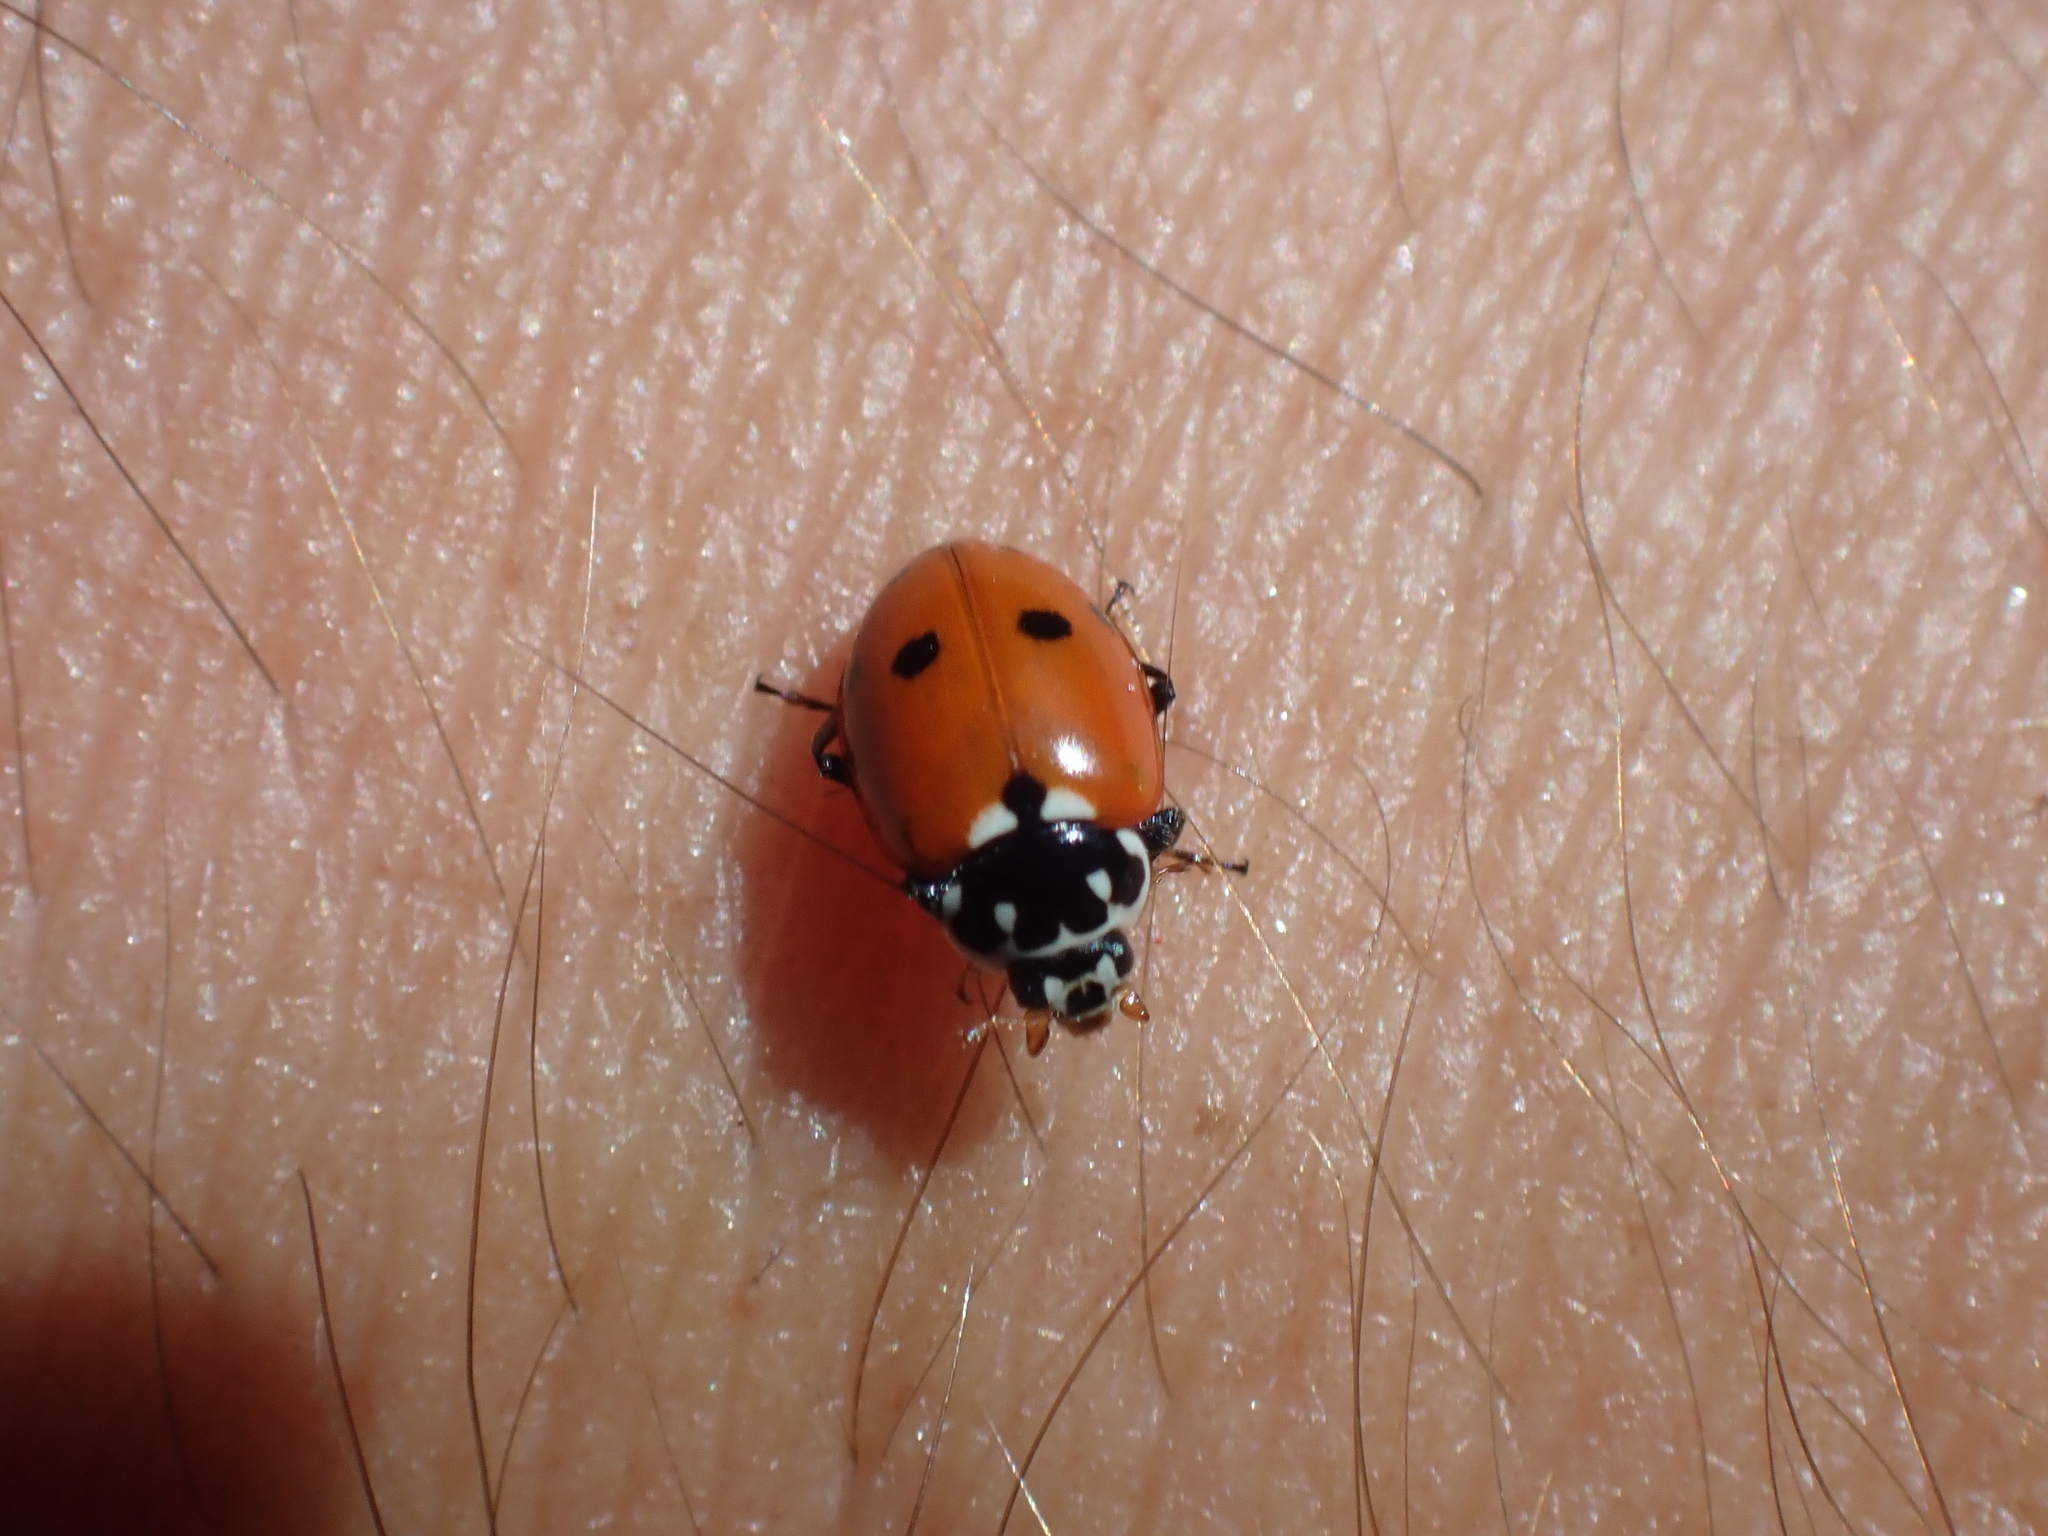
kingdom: Animalia
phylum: Arthropoda
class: Insecta
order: Coleoptera
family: Coccinellidae
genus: Hippodamia
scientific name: Hippodamia variegata
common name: Ladybird beetle
